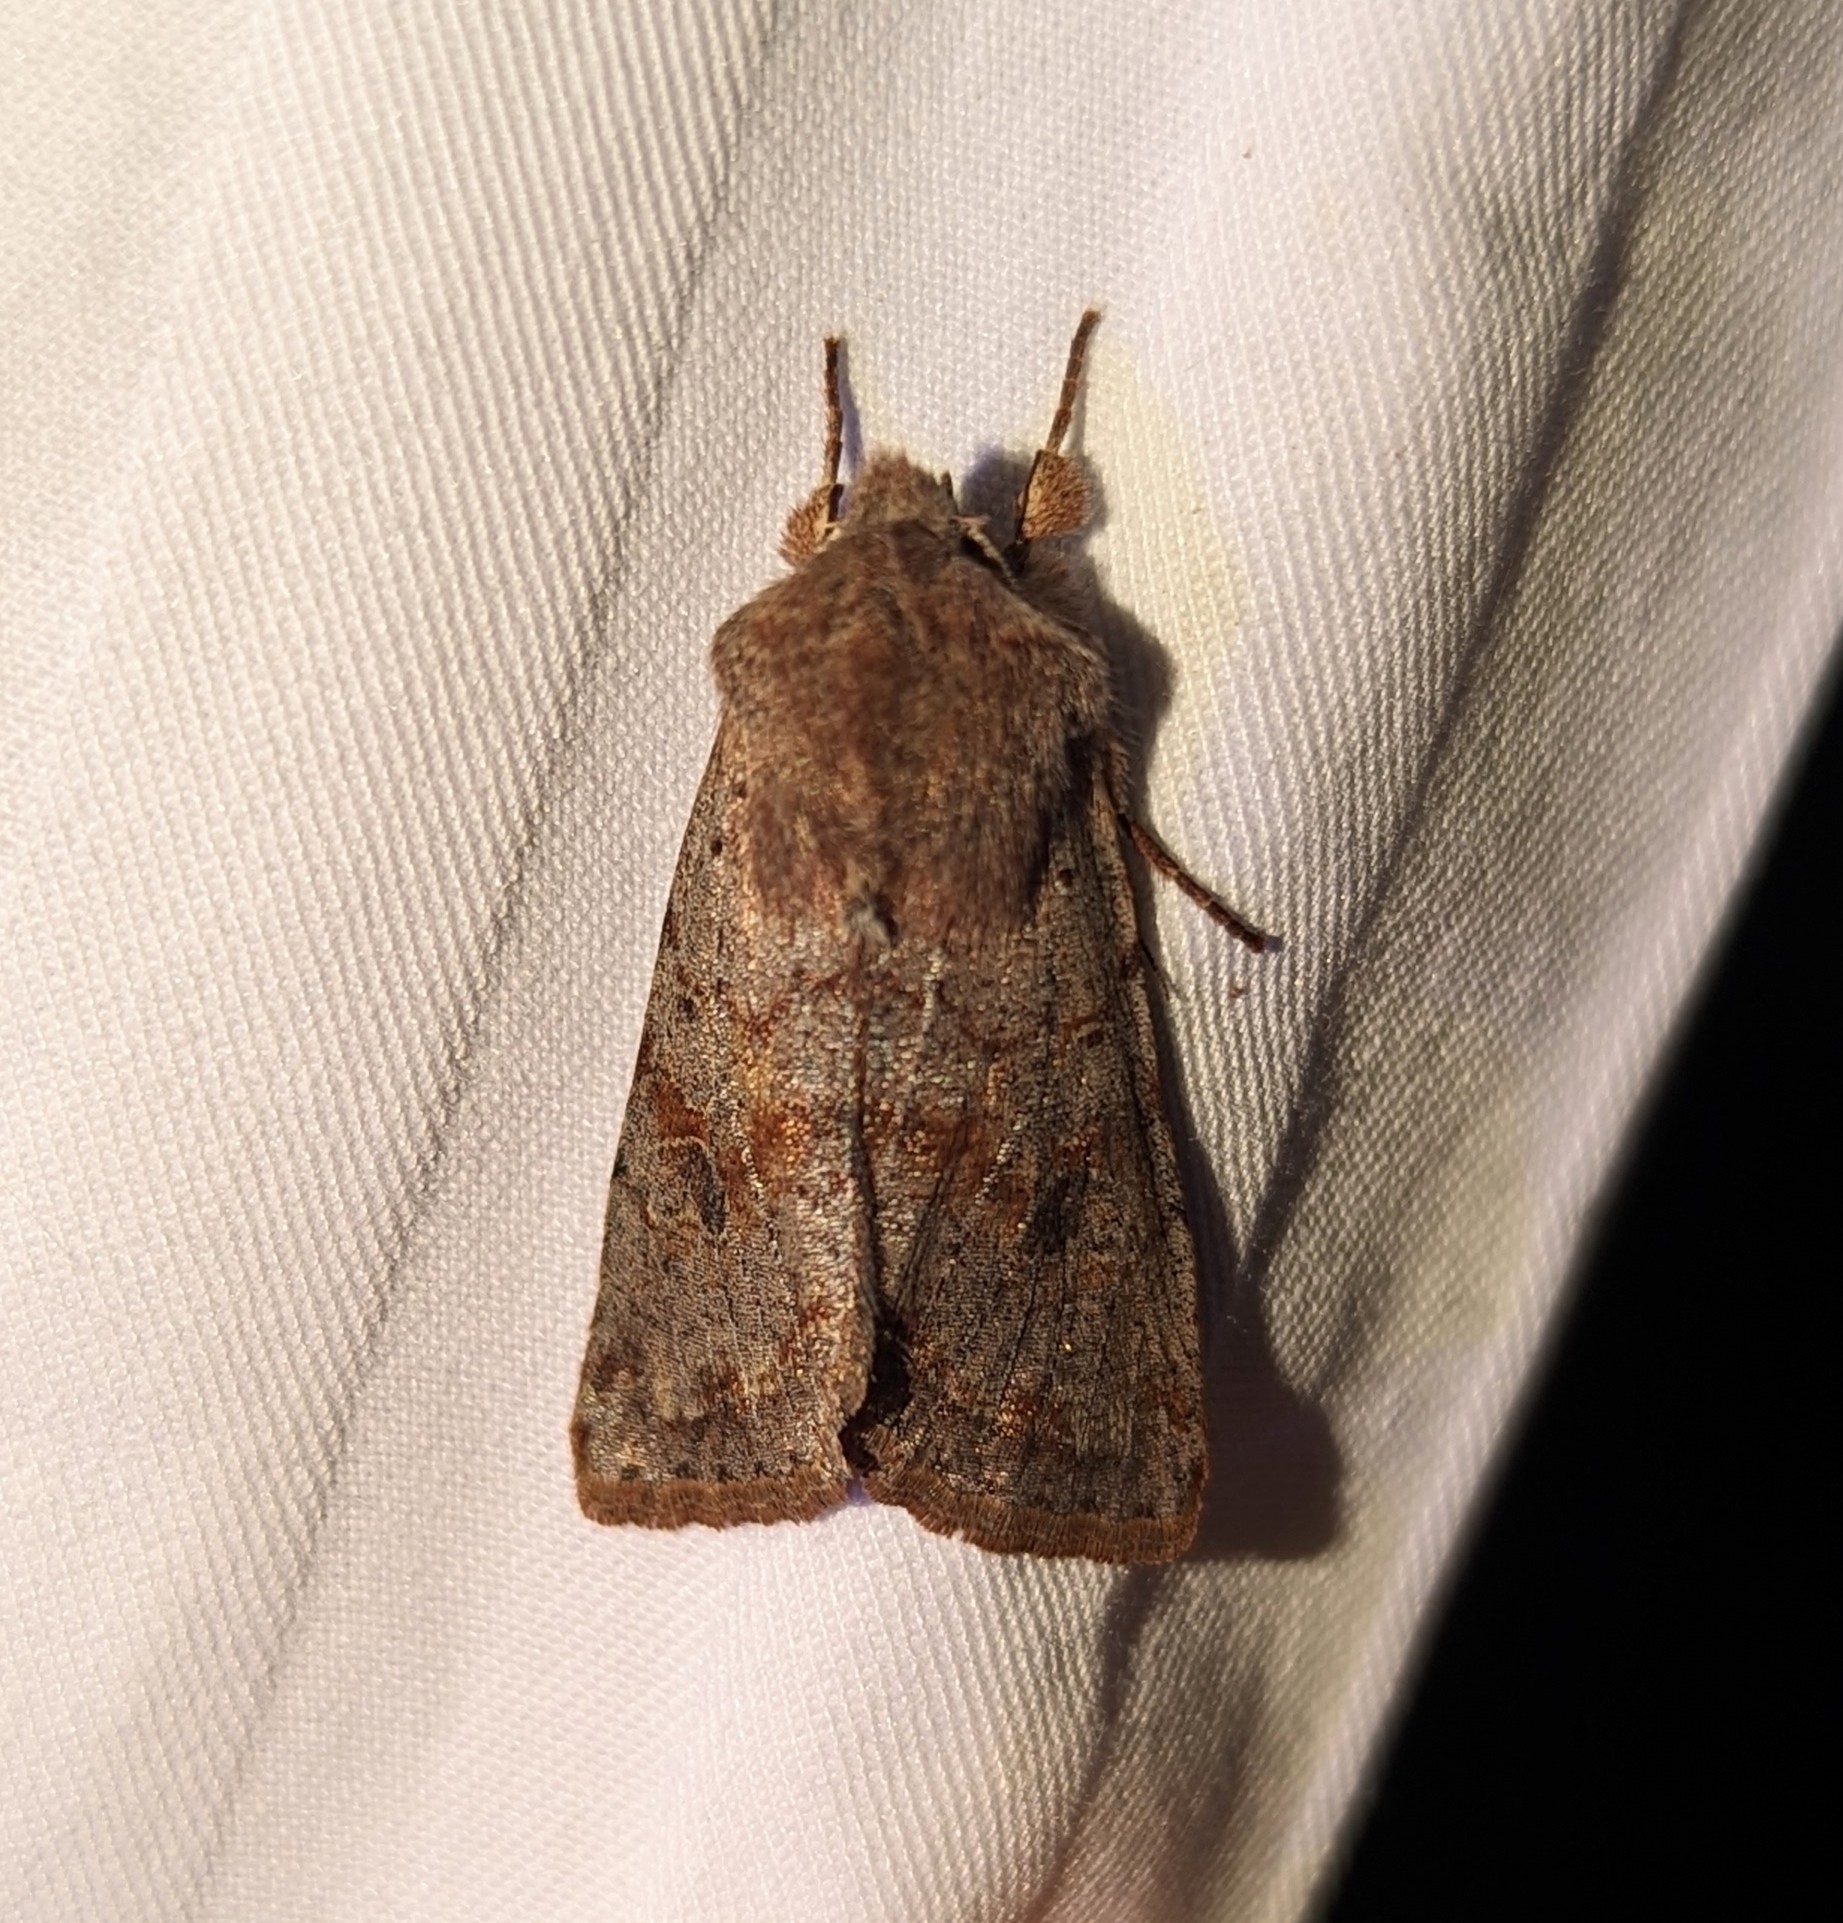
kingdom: Animalia
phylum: Arthropoda
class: Insecta
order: Lepidoptera
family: Noctuidae
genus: Orthosia
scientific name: Orthosia hibisci
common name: Green fruitworm
